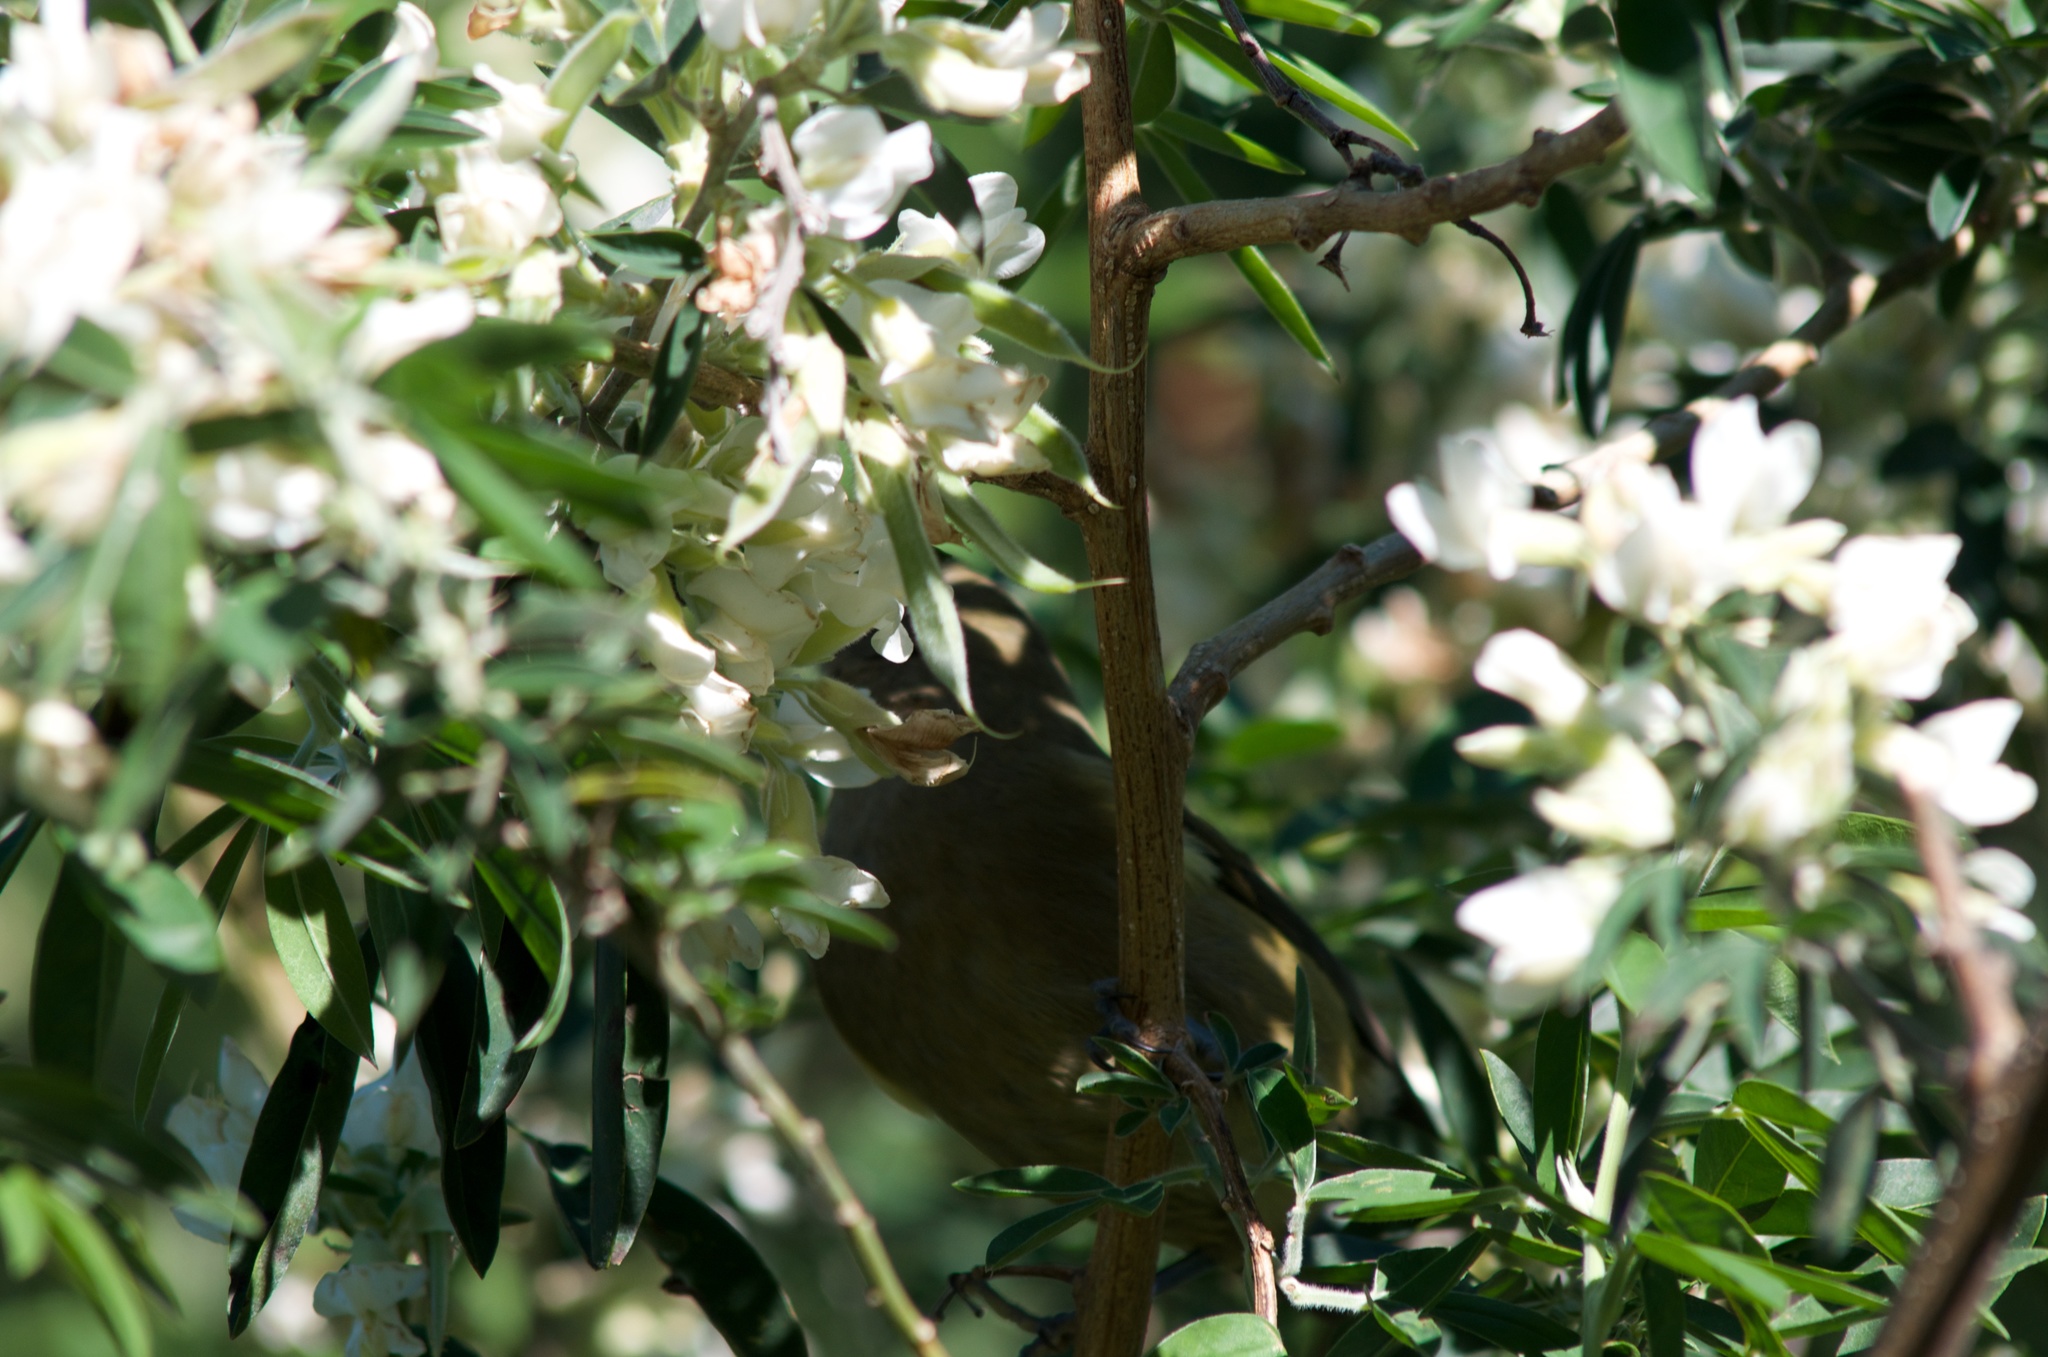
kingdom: Animalia
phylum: Chordata
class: Aves
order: Passeriformes
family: Meliphagidae
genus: Anthornis
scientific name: Anthornis melanura
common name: New zealand bellbird
